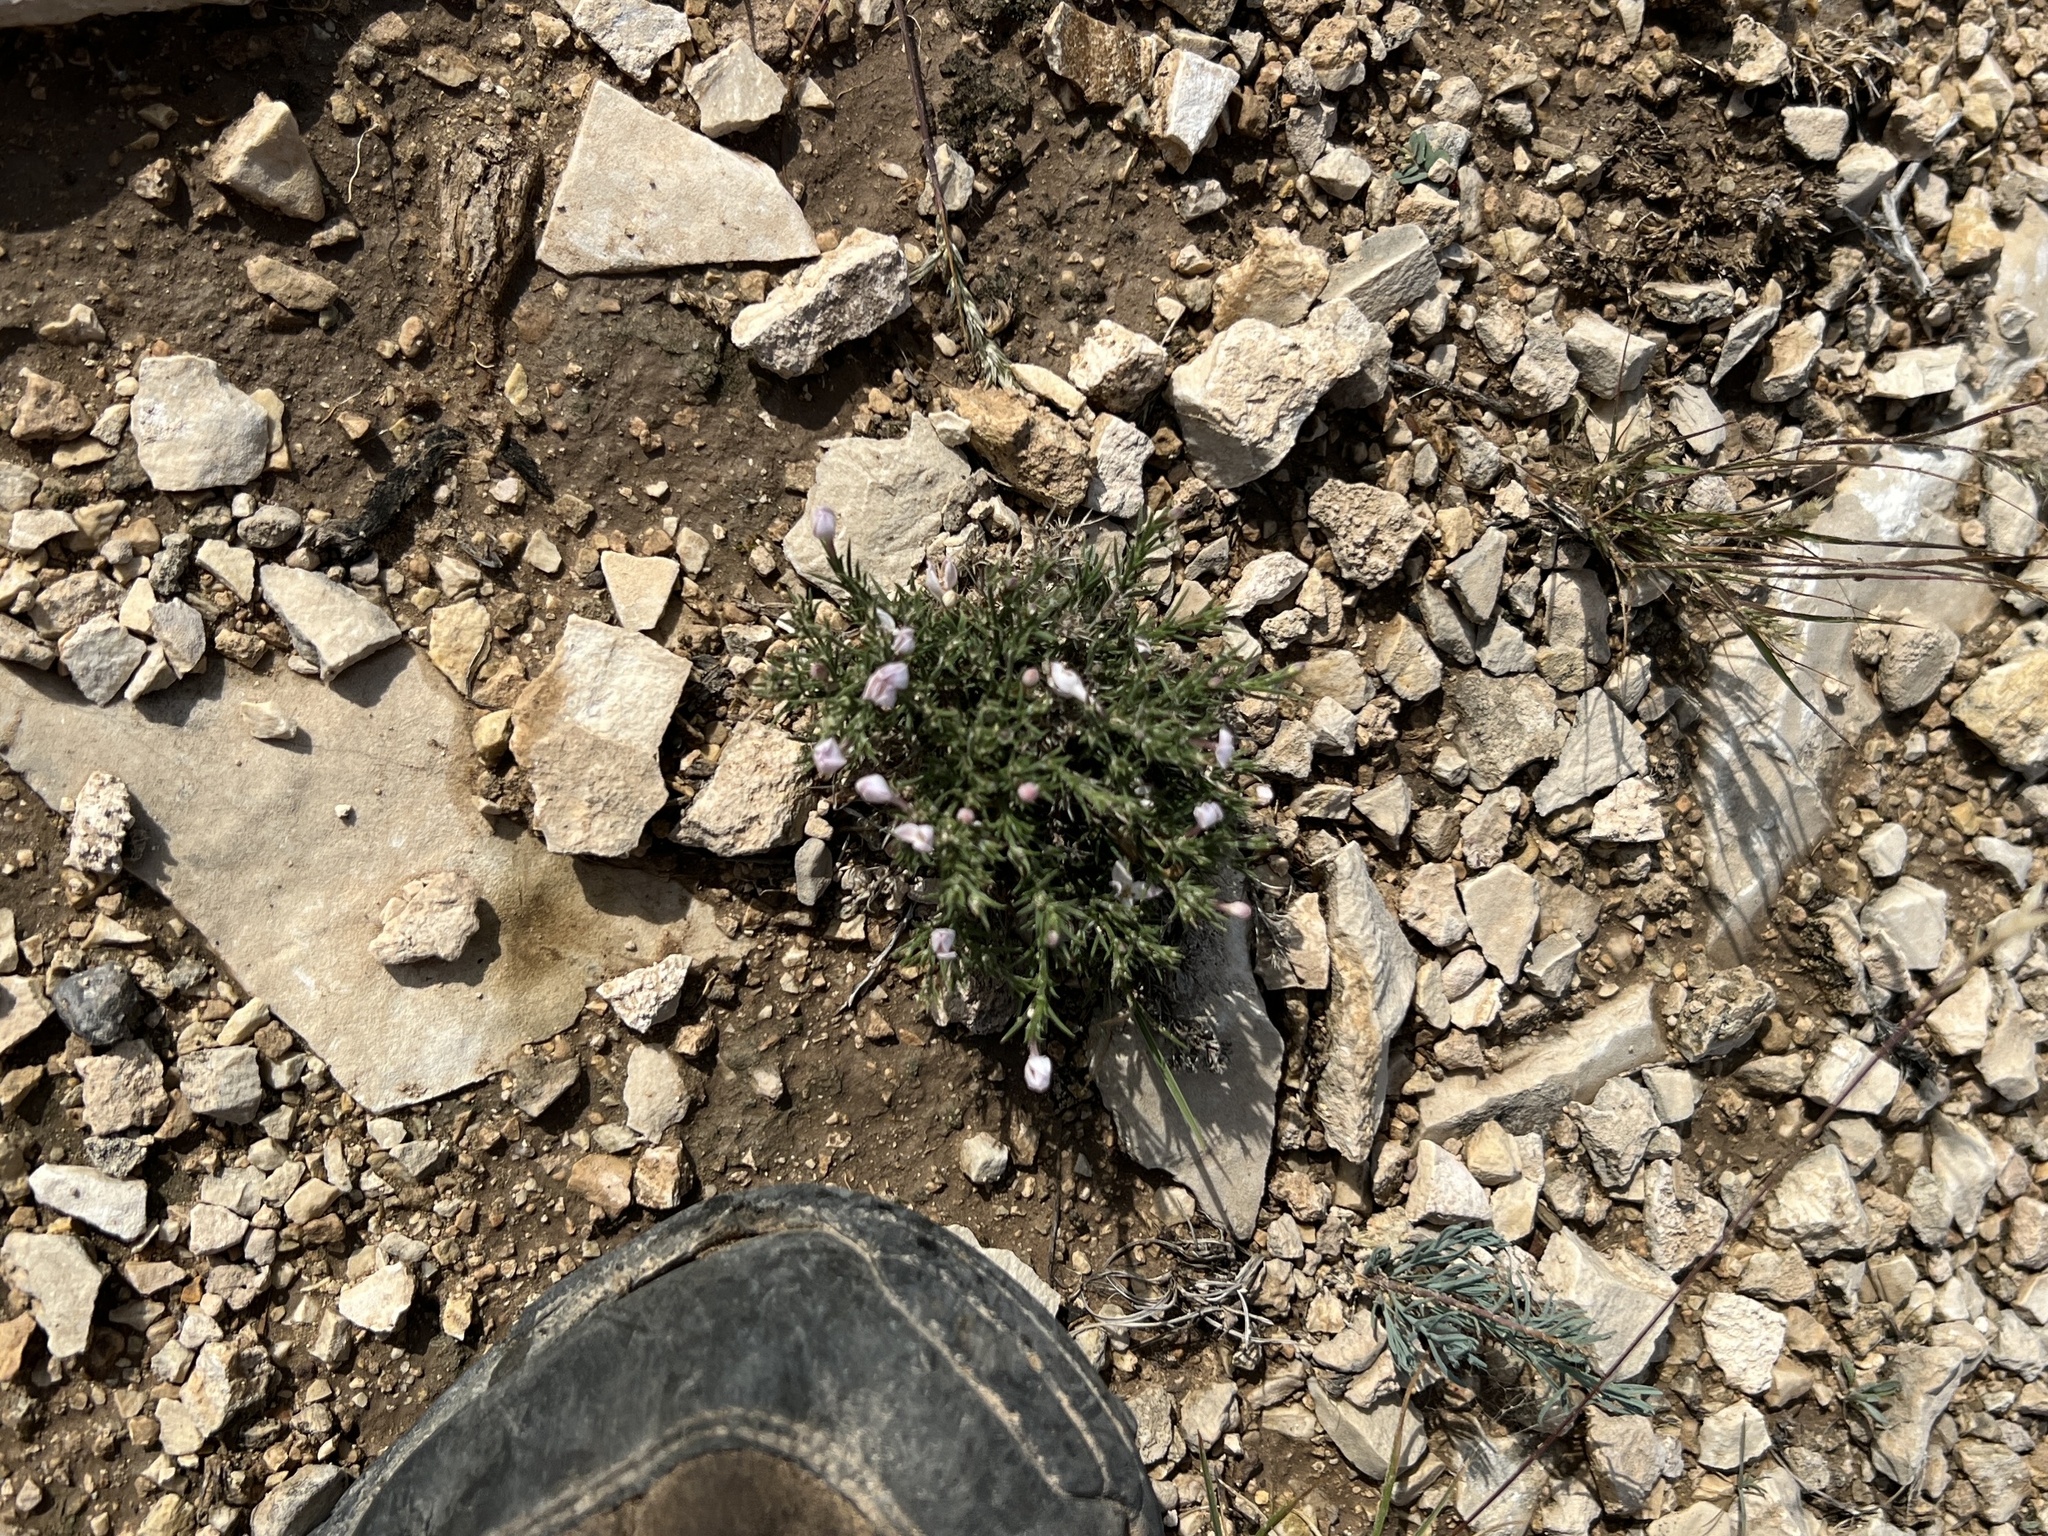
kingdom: Plantae
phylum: Tracheophyta
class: Magnoliopsida
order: Gentianales
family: Rubiaceae
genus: Houstonia
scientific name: Houstonia acerosa
